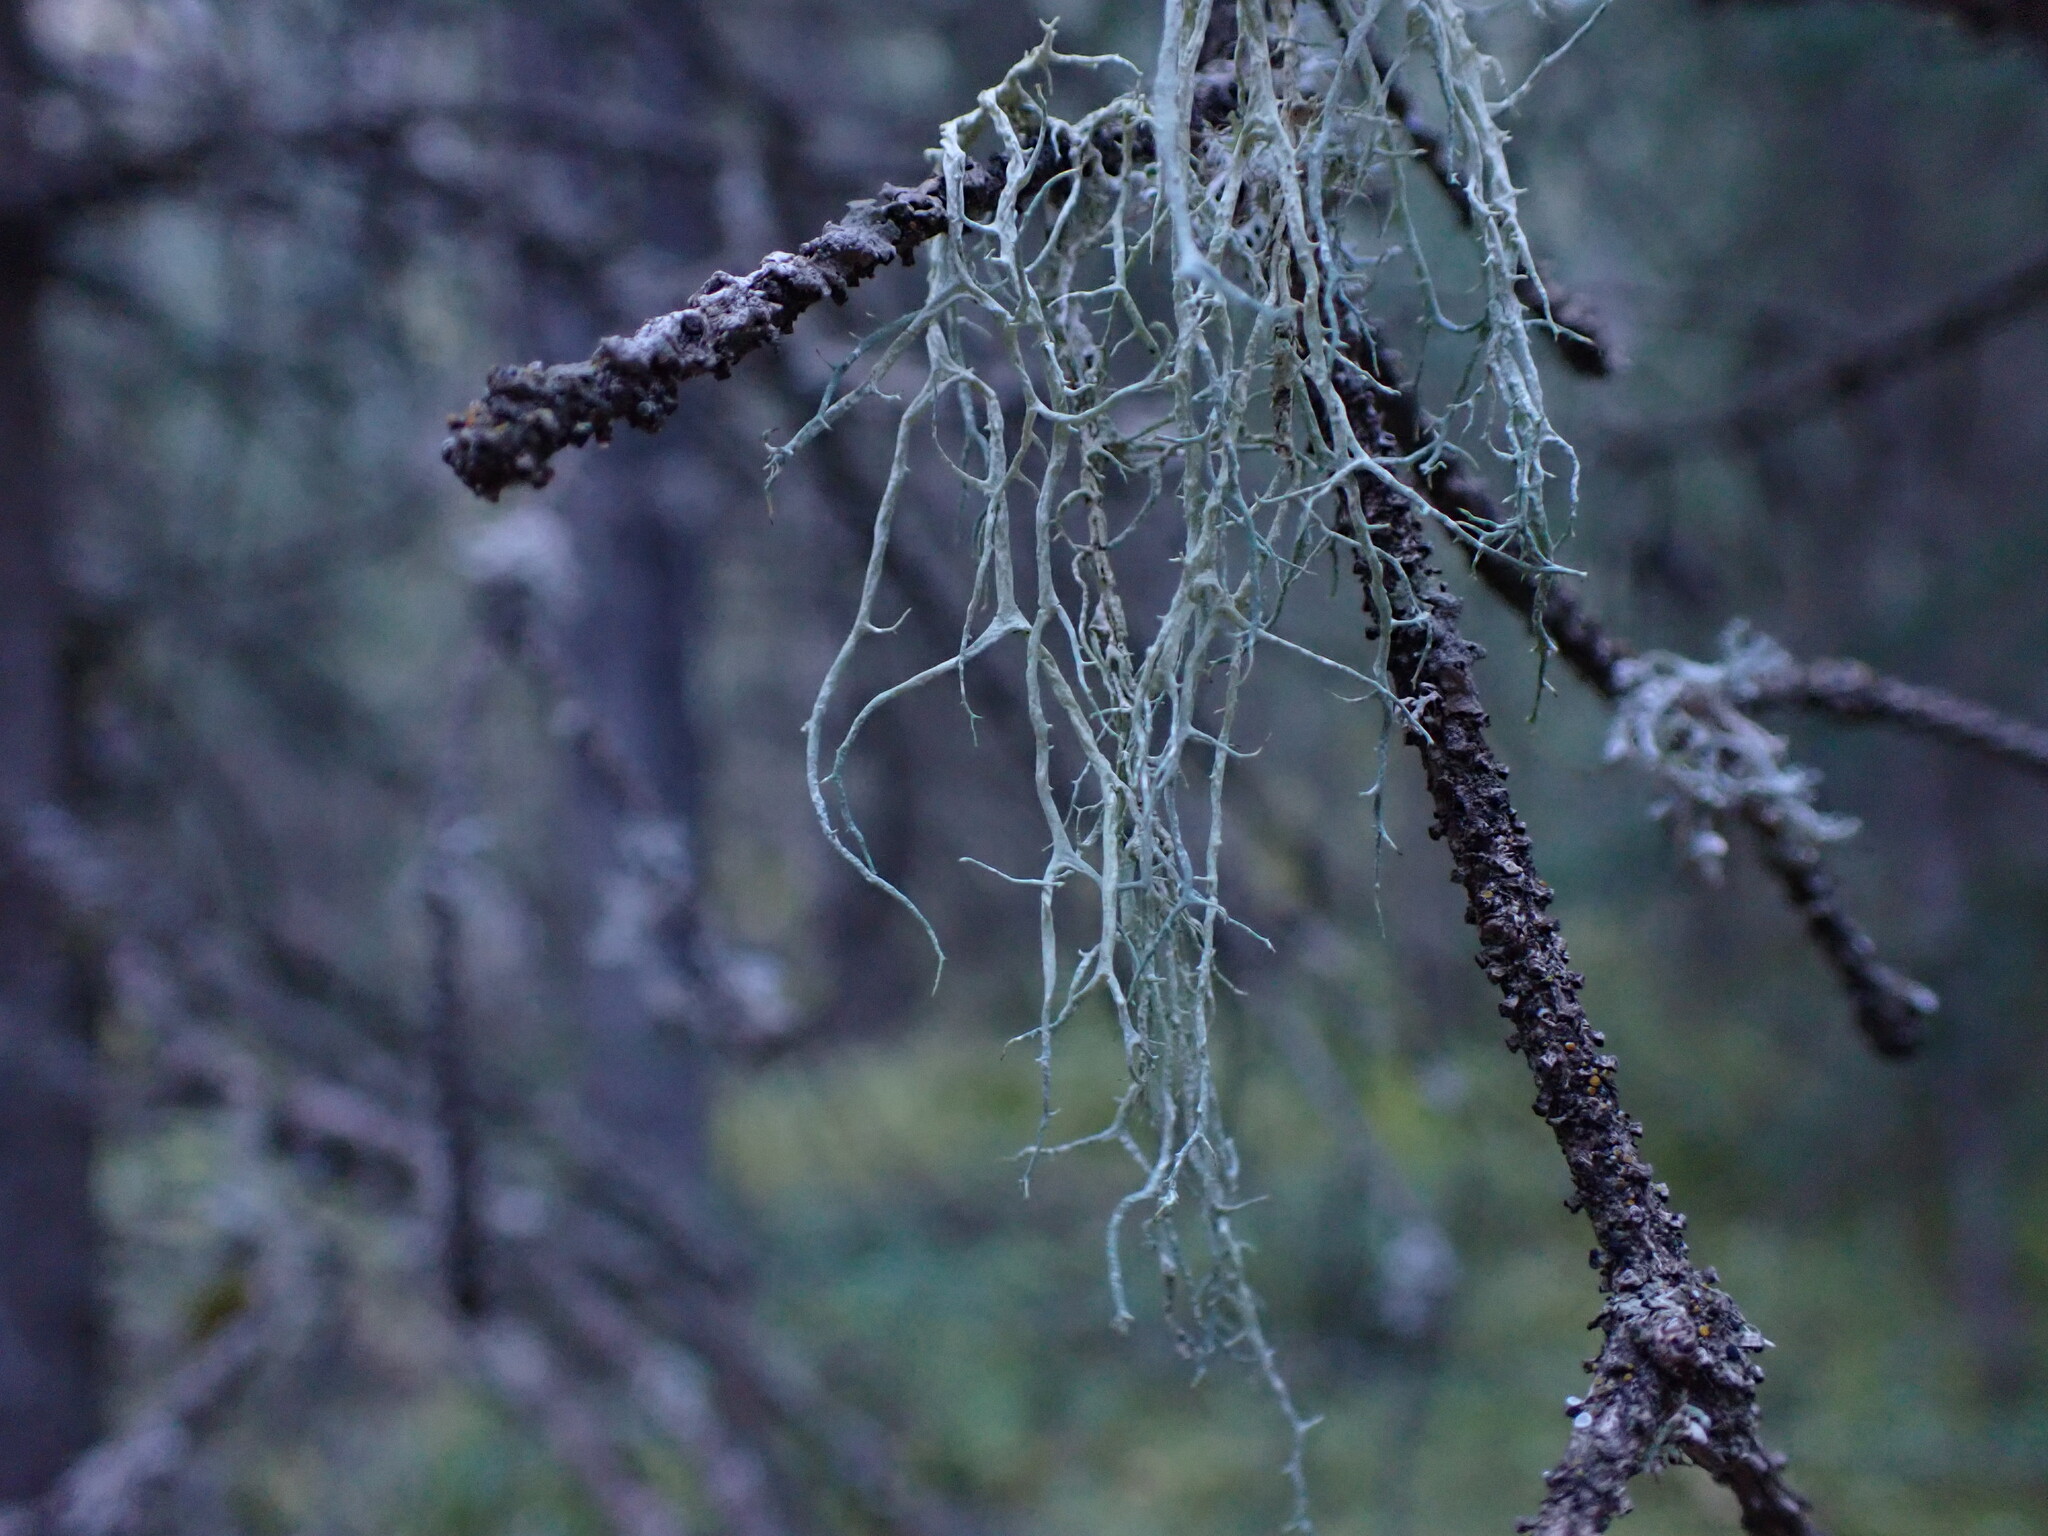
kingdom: Fungi
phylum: Ascomycota
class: Lecanoromycetes
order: Lecanorales
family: Parmeliaceae
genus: Evernia
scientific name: Evernia divaricata
